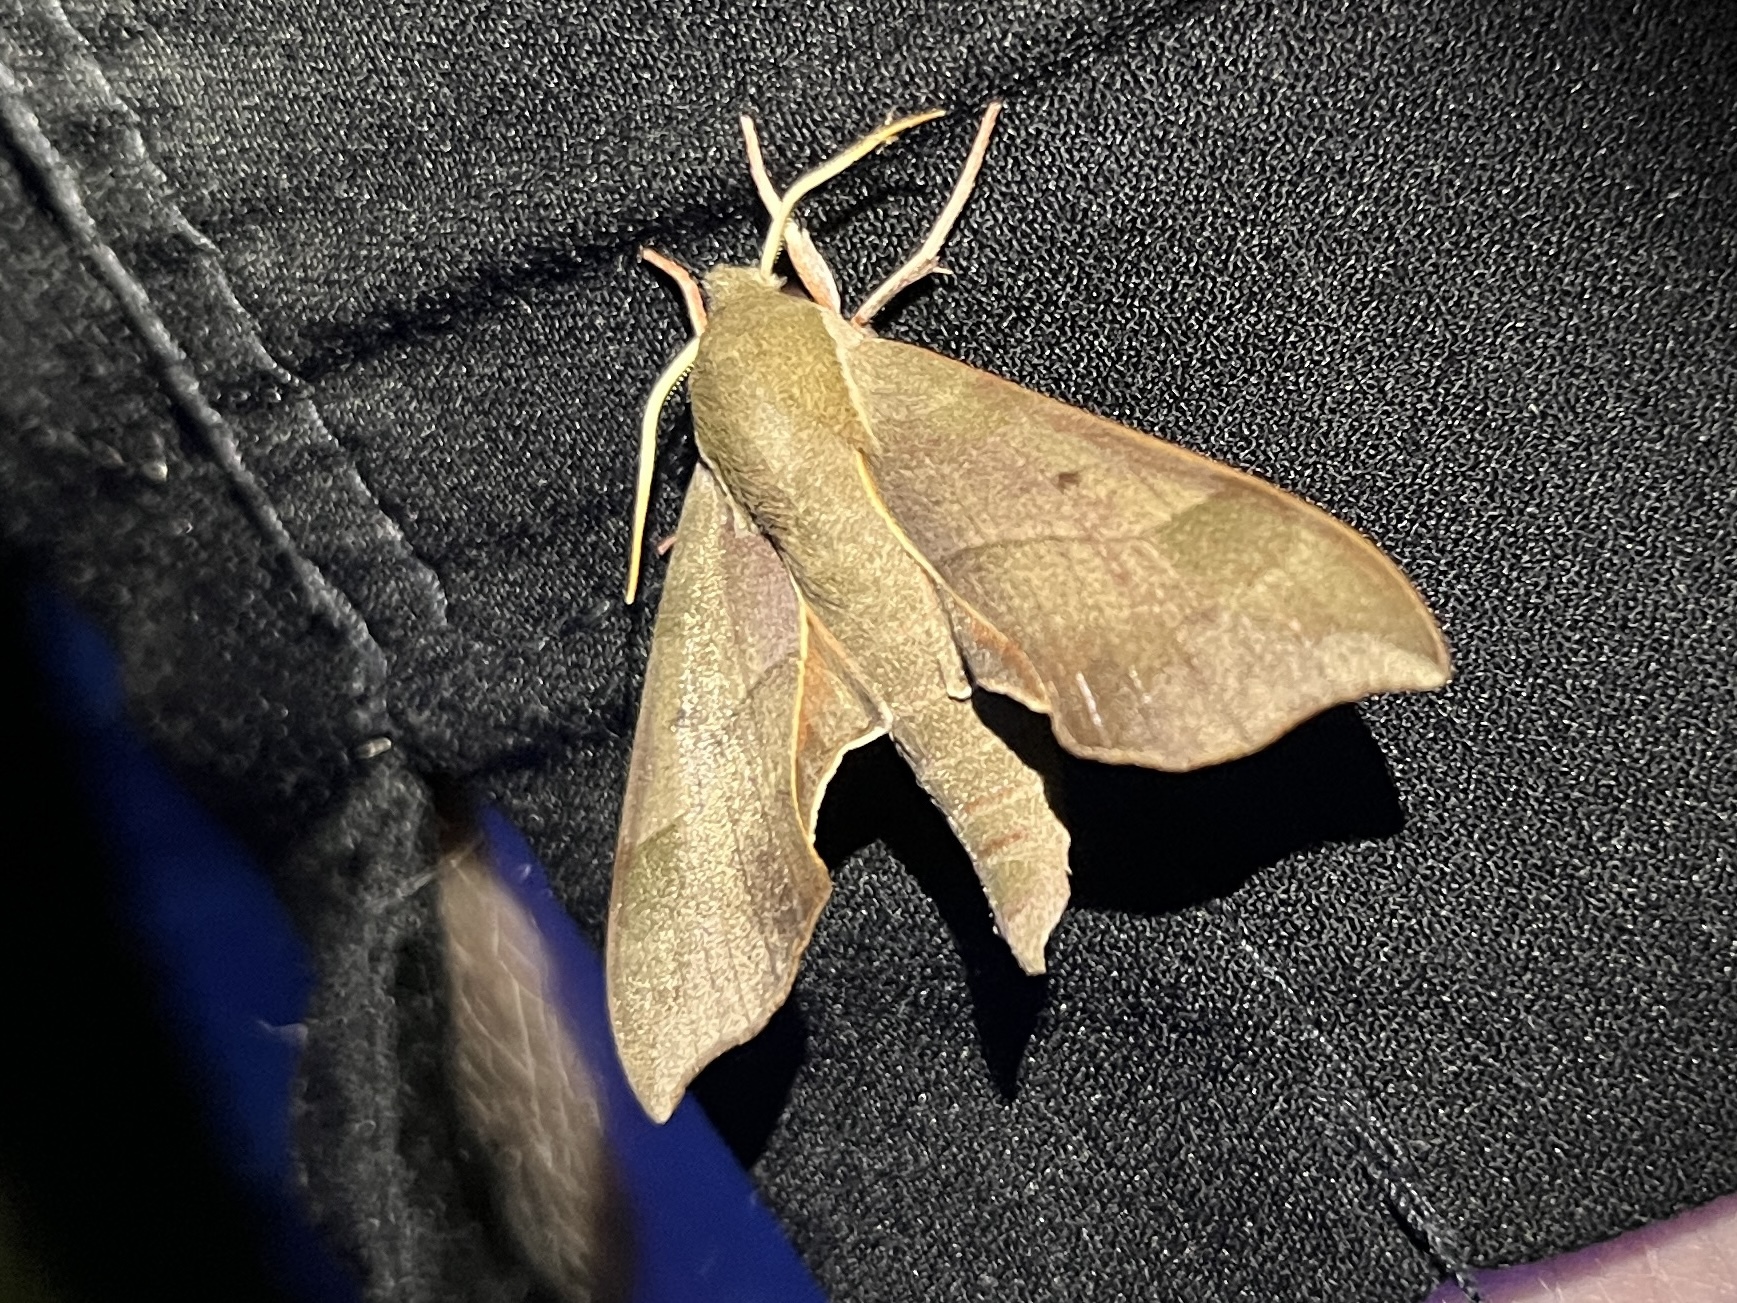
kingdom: Animalia
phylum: Arthropoda
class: Insecta
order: Lepidoptera
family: Sphingidae
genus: Darapsa
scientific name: Darapsa myron
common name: Hog sphinx
